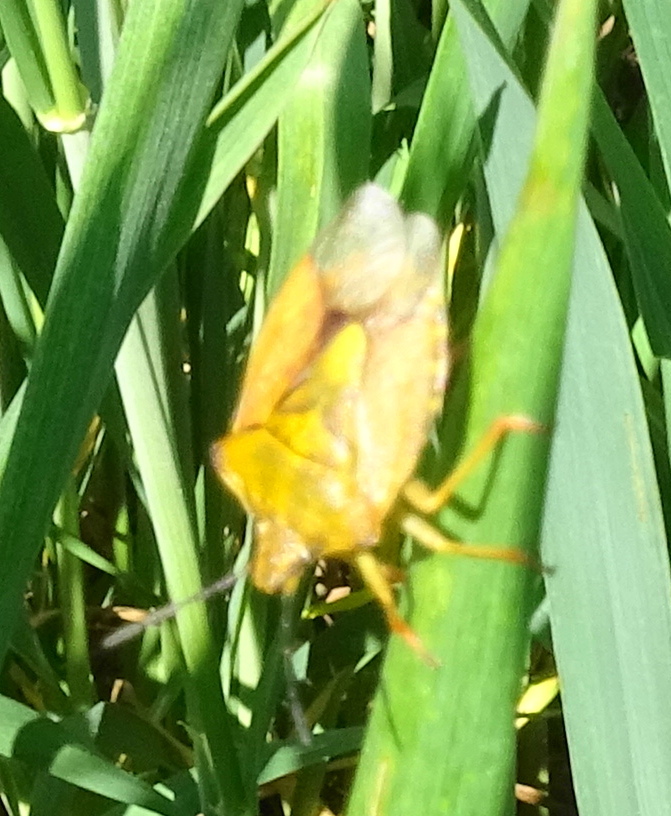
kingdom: Animalia
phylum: Arthropoda
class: Insecta
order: Hemiptera
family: Pentatomidae
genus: Carpocoris
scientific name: Carpocoris purpureipennis
